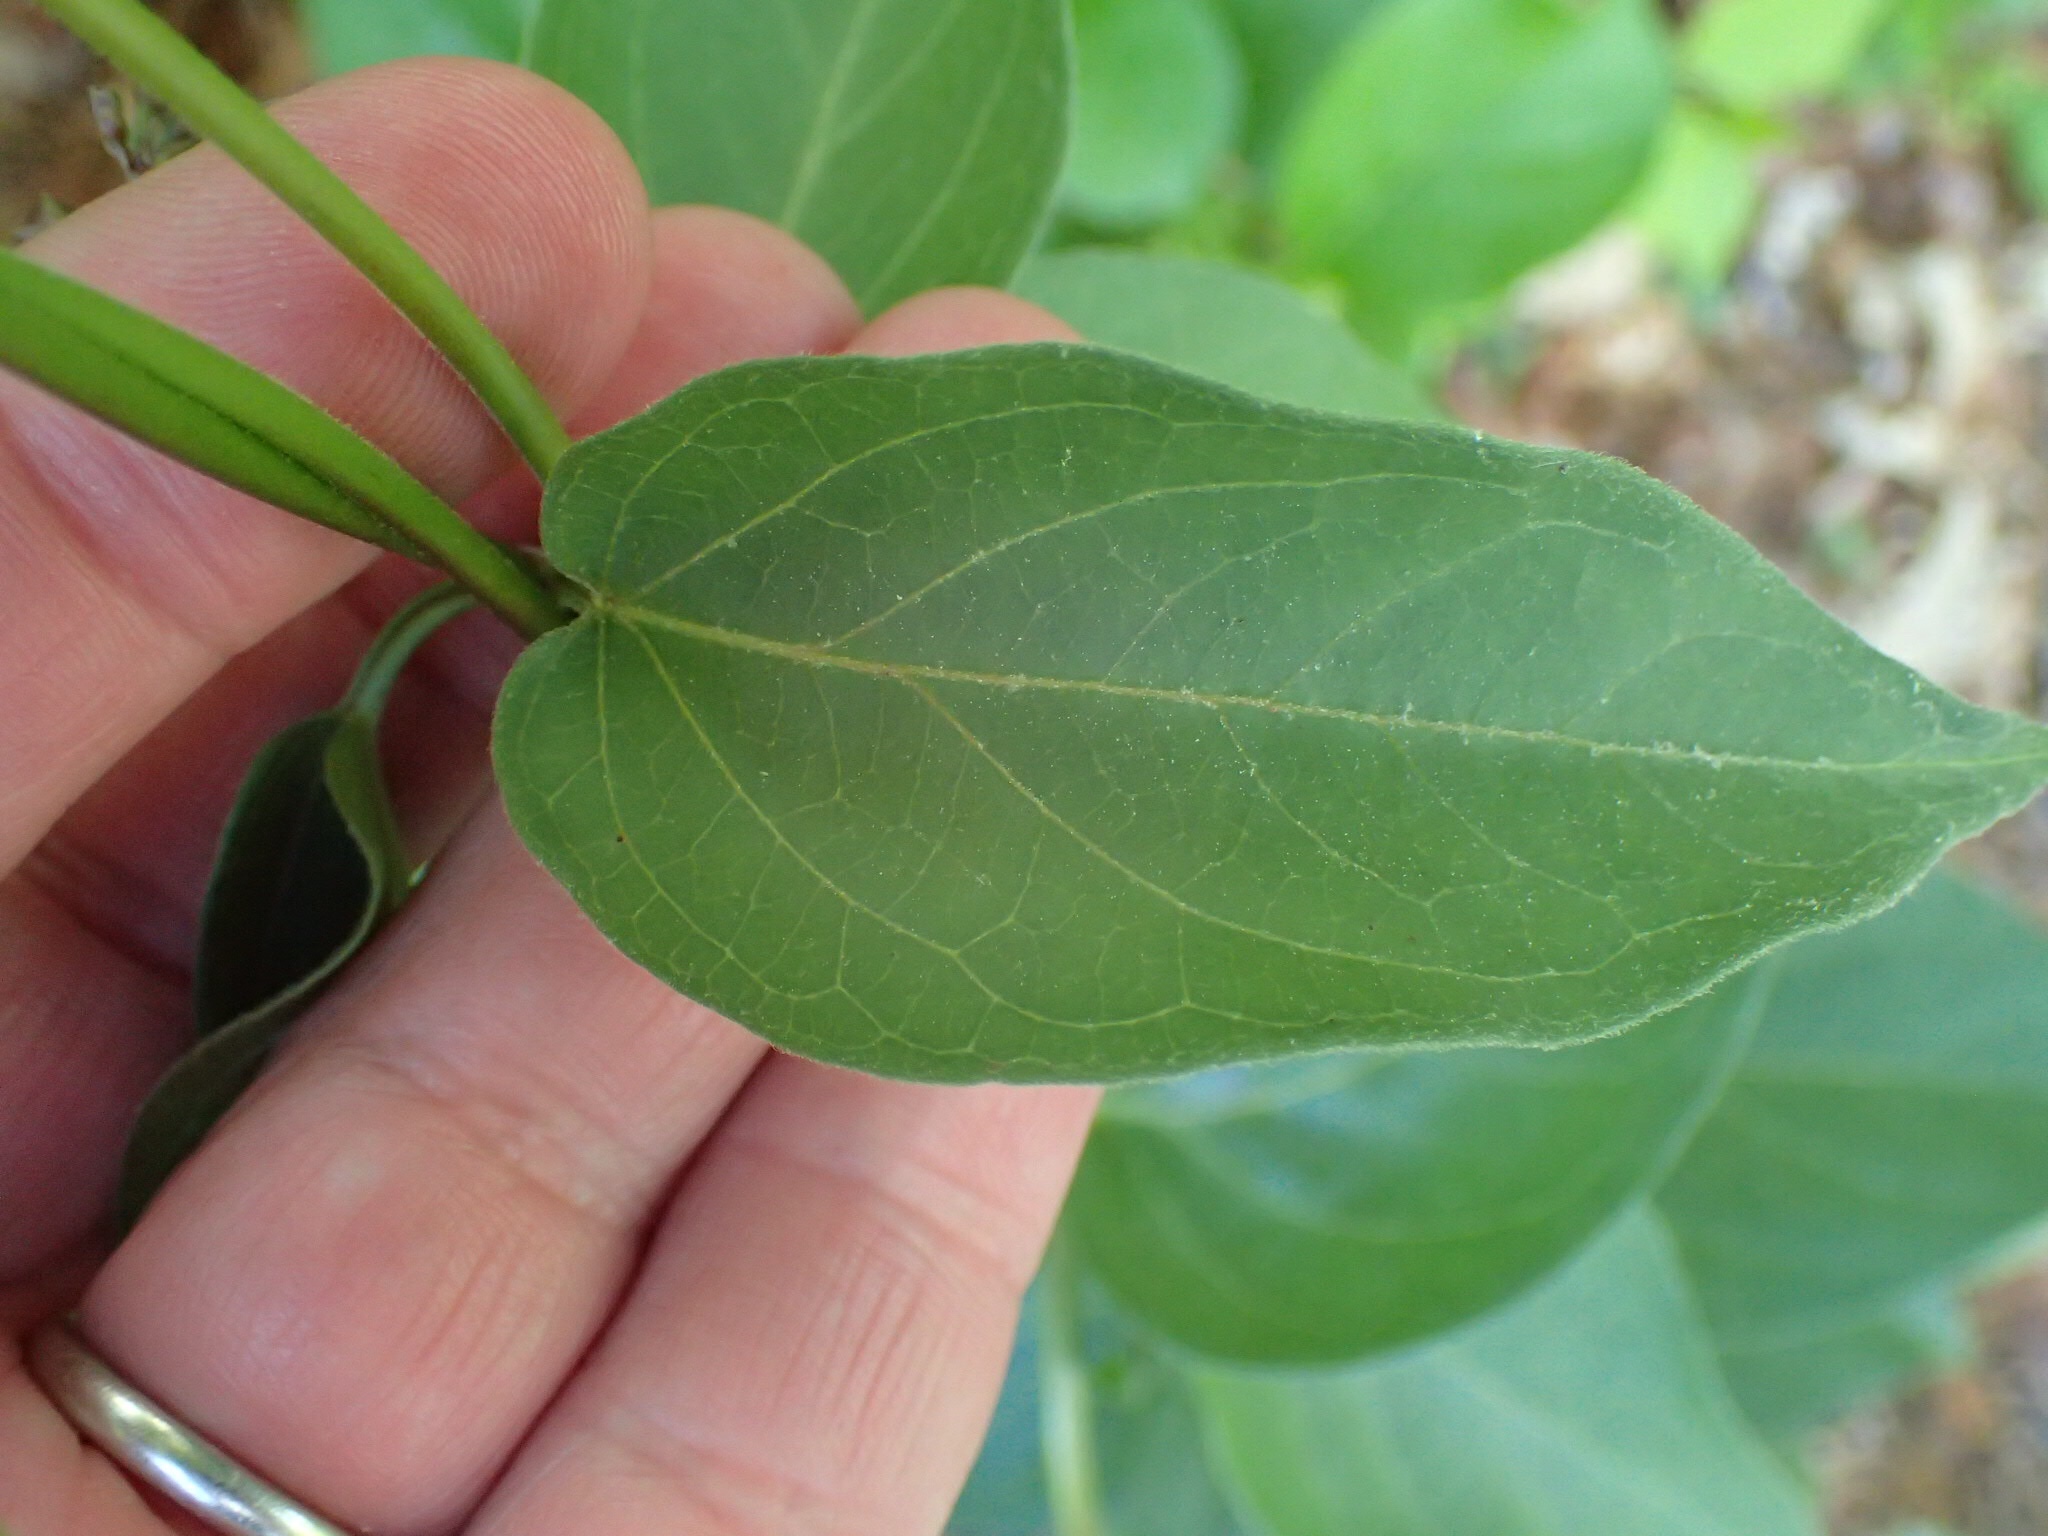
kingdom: Plantae
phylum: Tracheophyta
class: Magnoliopsida
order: Gentianales
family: Apocynaceae
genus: Vincetoxicum
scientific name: Vincetoxicum nigrum
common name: Black swallow-wort
